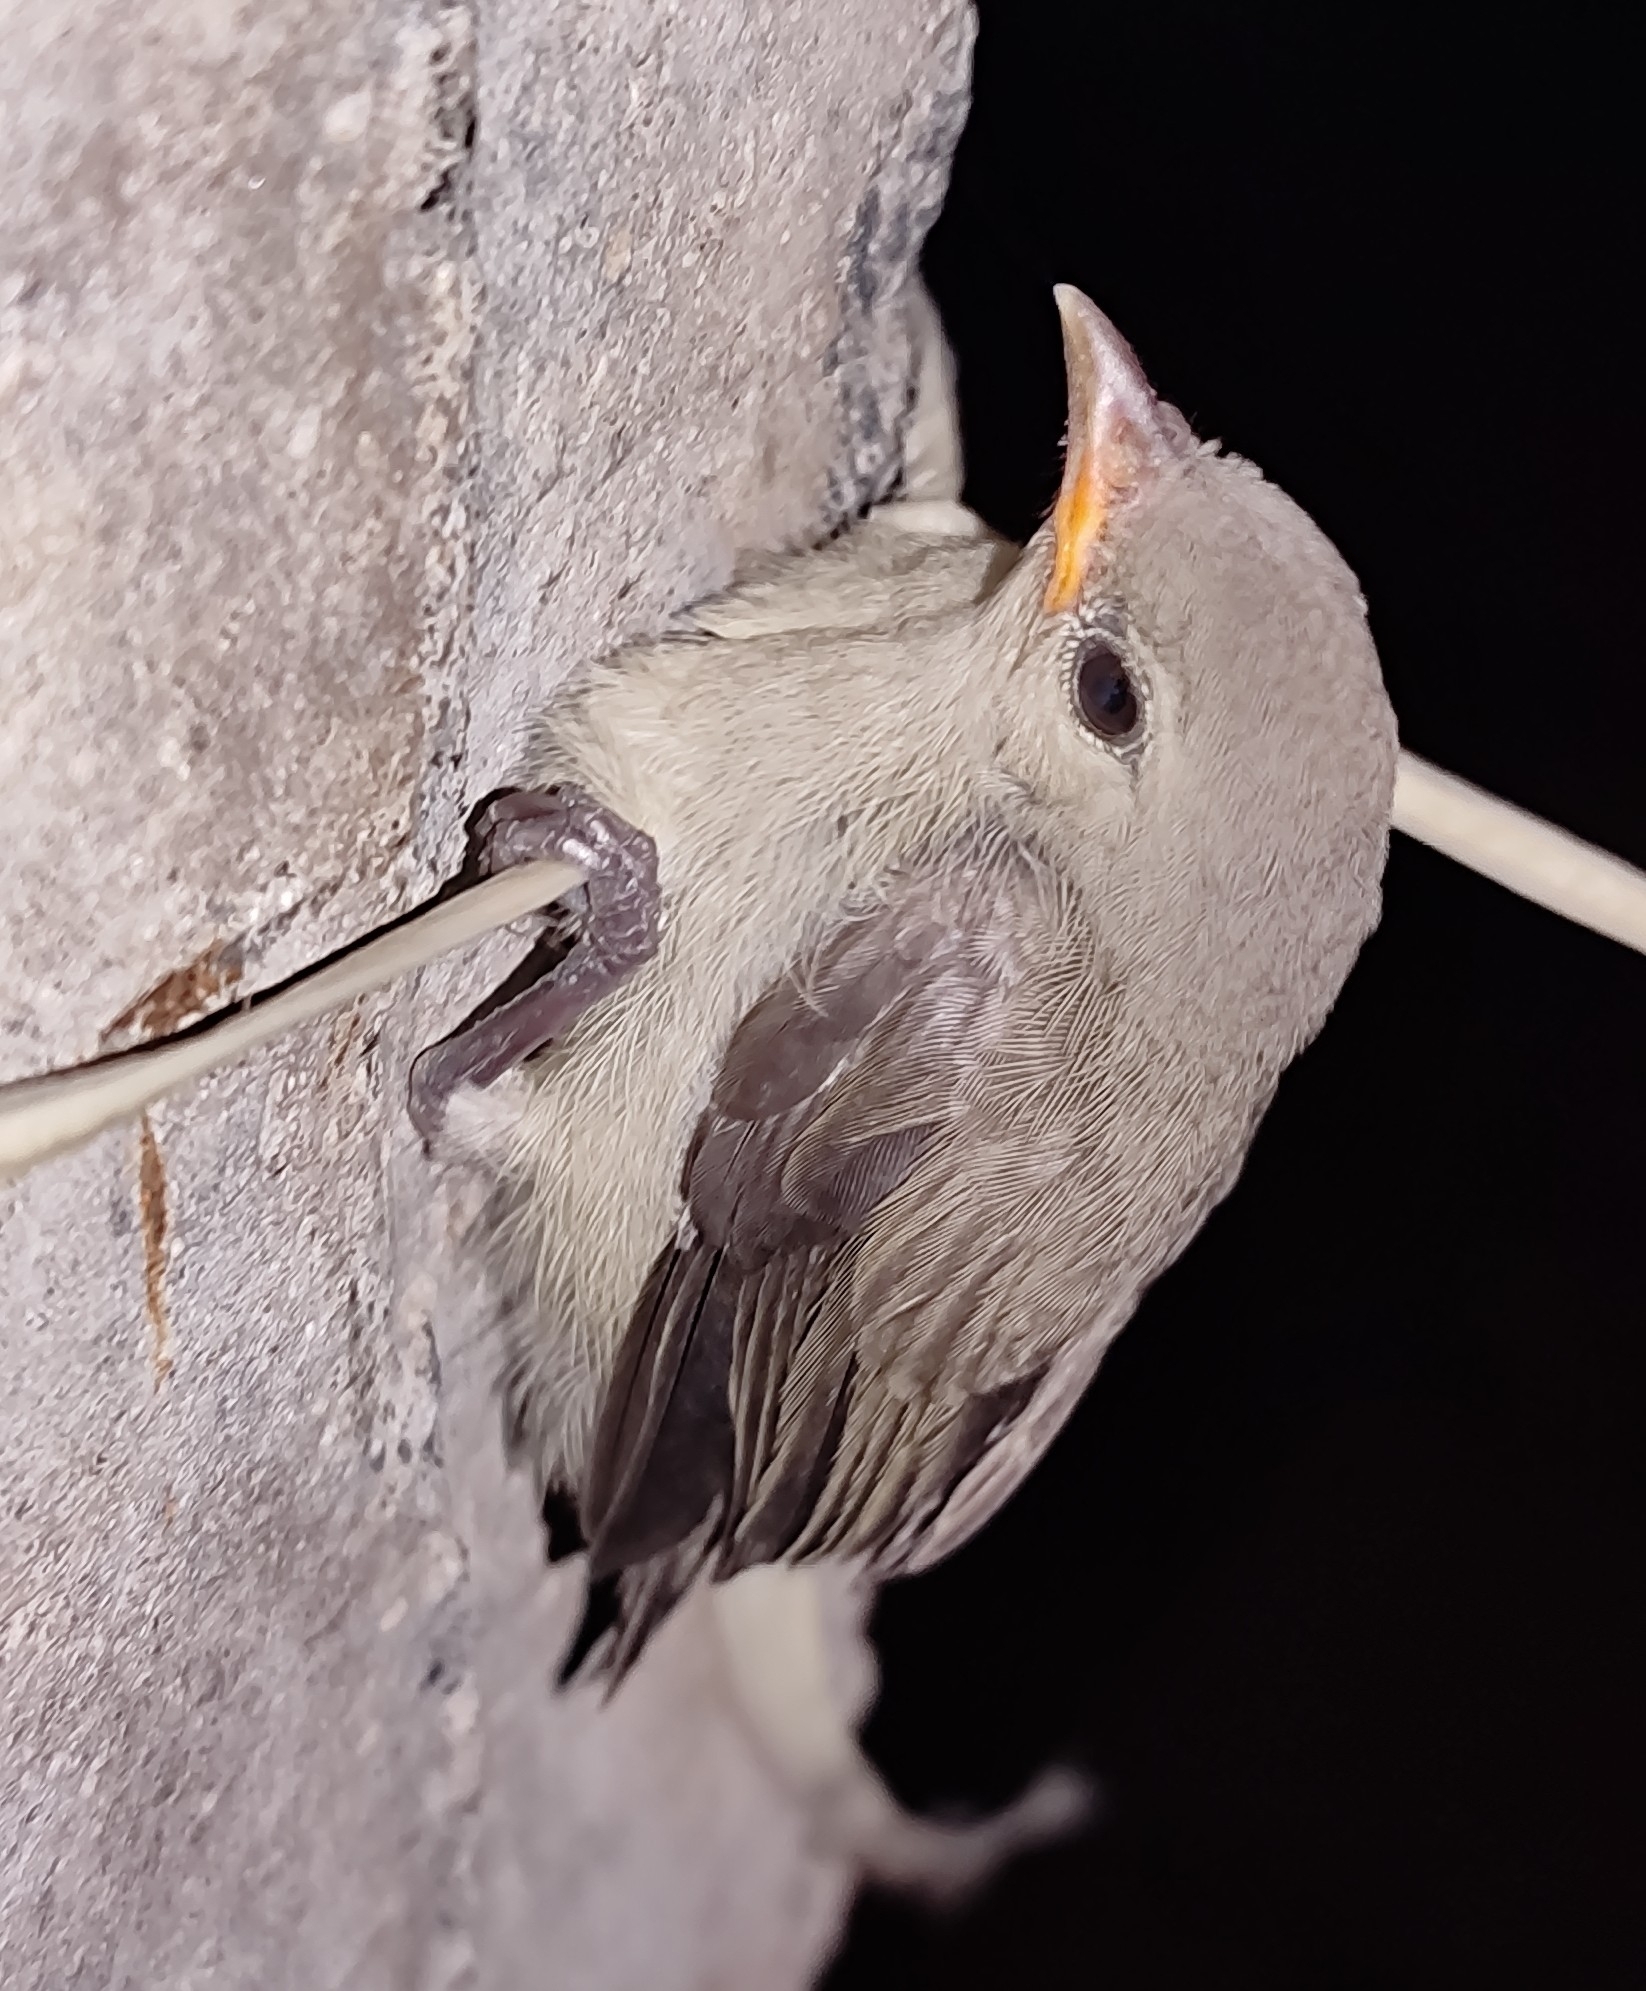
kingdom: Animalia
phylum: Chordata
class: Aves
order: Passeriformes
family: Dicaeidae
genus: Dicaeum
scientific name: Dicaeum erythrorhynchos
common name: Pale-billed flowerpecker
